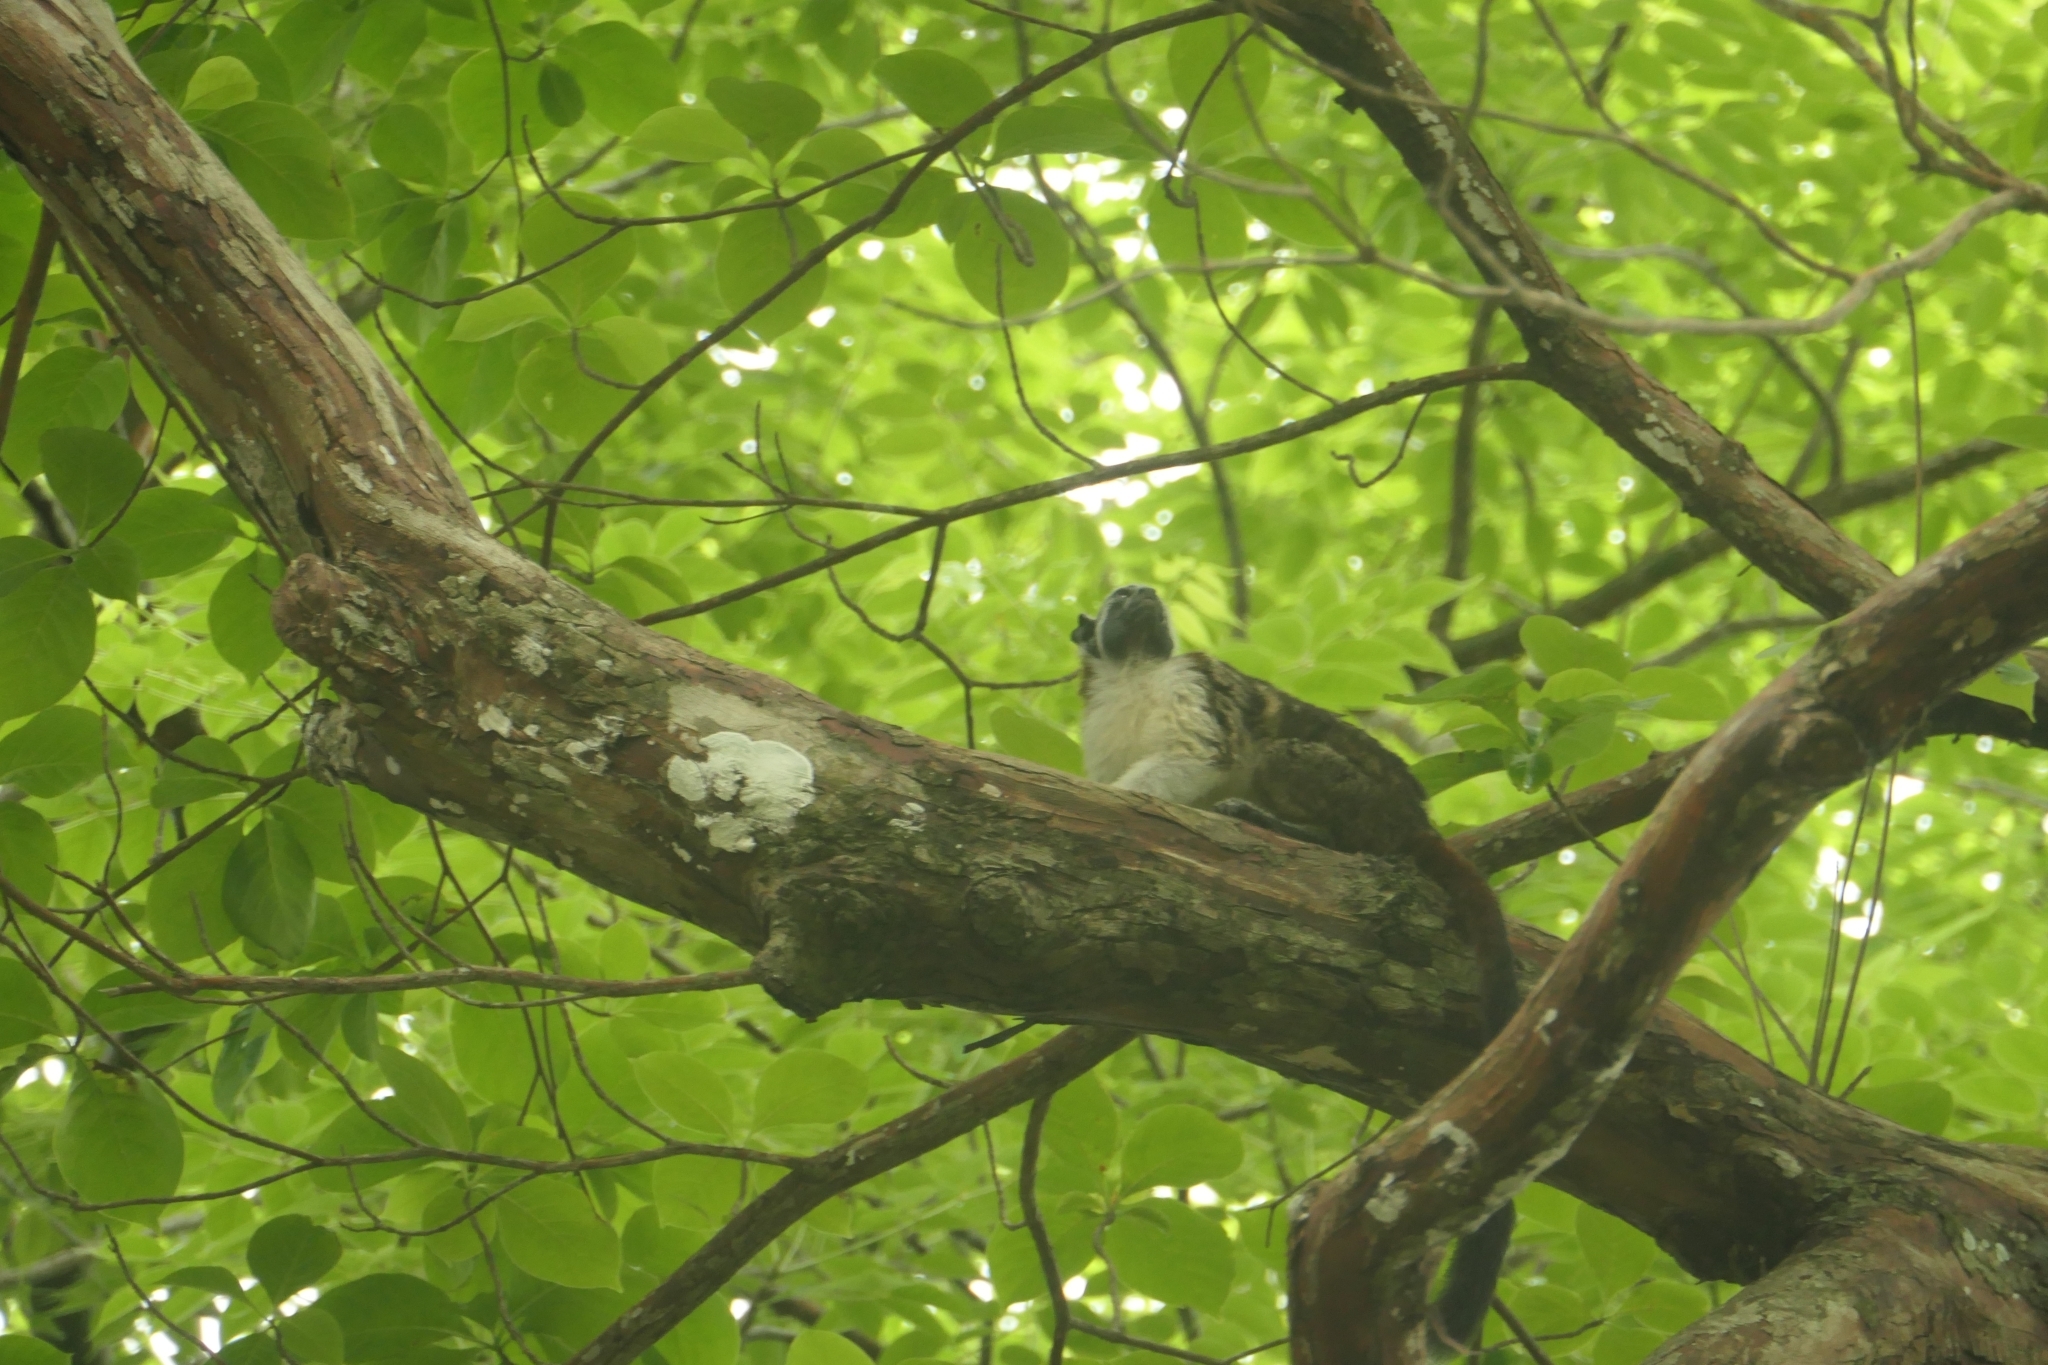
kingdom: Animalia
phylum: Chordata
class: Mammalia
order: Primates
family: Callitrichidae
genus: Saguinus
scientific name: Saguinus geoffroyi
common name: Geoffroy s tamarin
